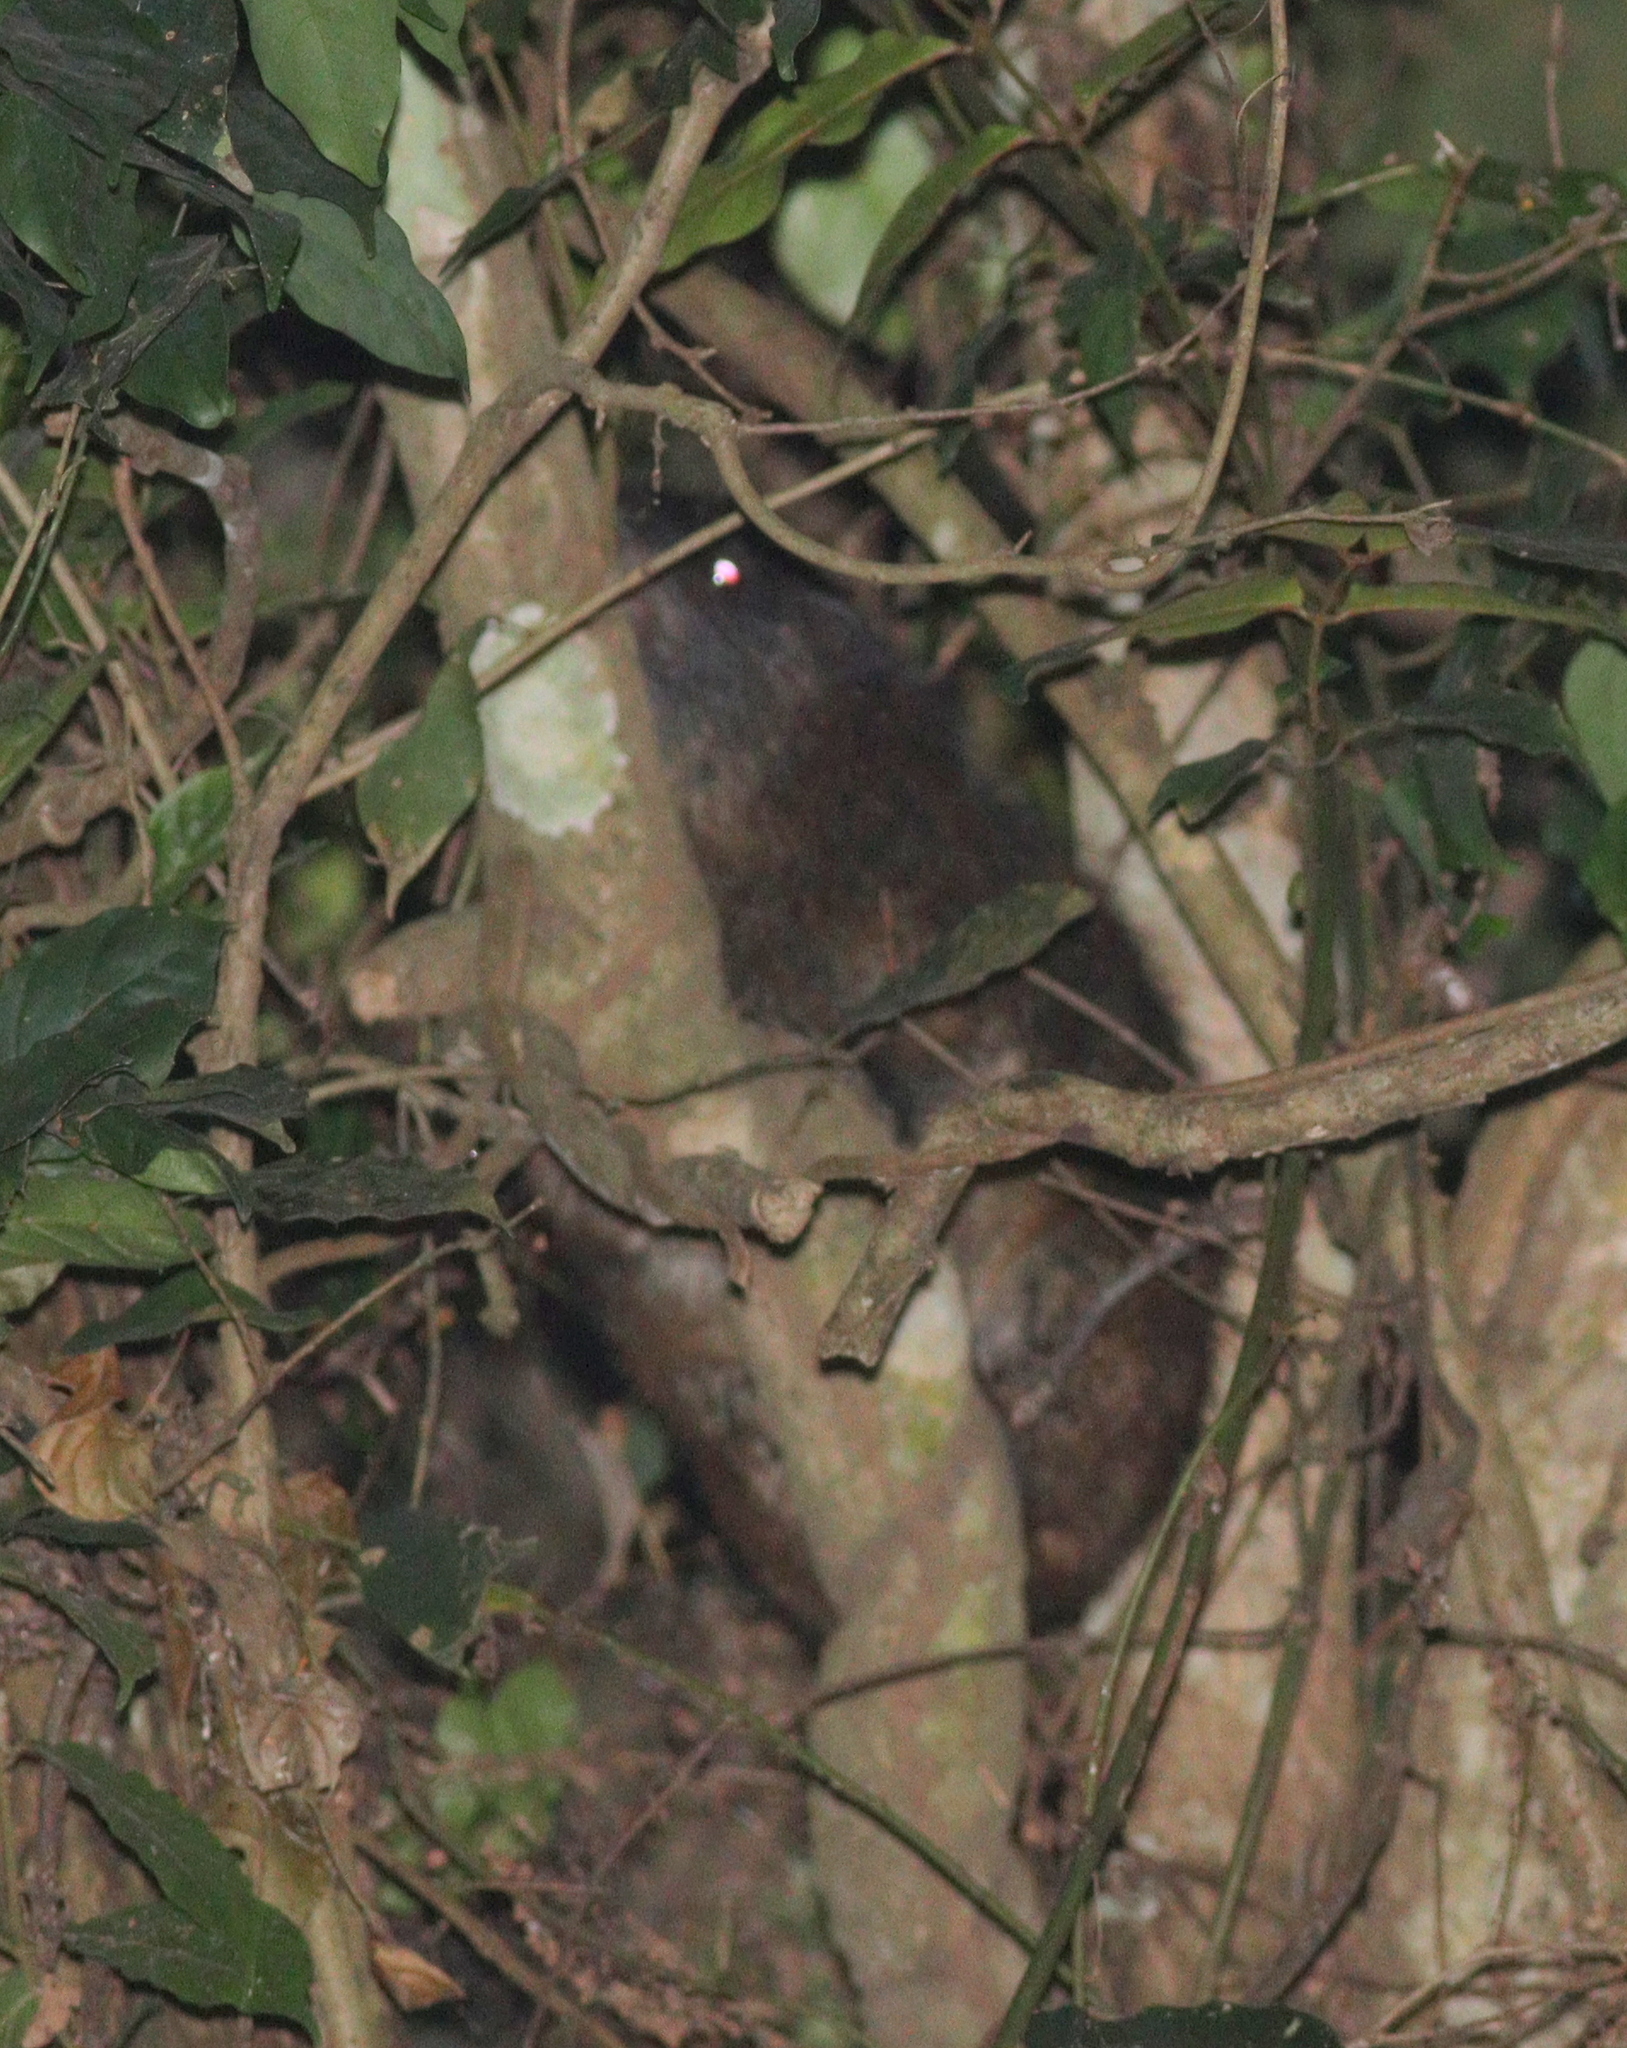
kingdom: Animalia
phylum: Chordata
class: Mammalia
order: Hyracoidea
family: Procaviidae
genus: Dendrohyrax
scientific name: Dendrohyrax dorsalis
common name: Western tree hyrax
